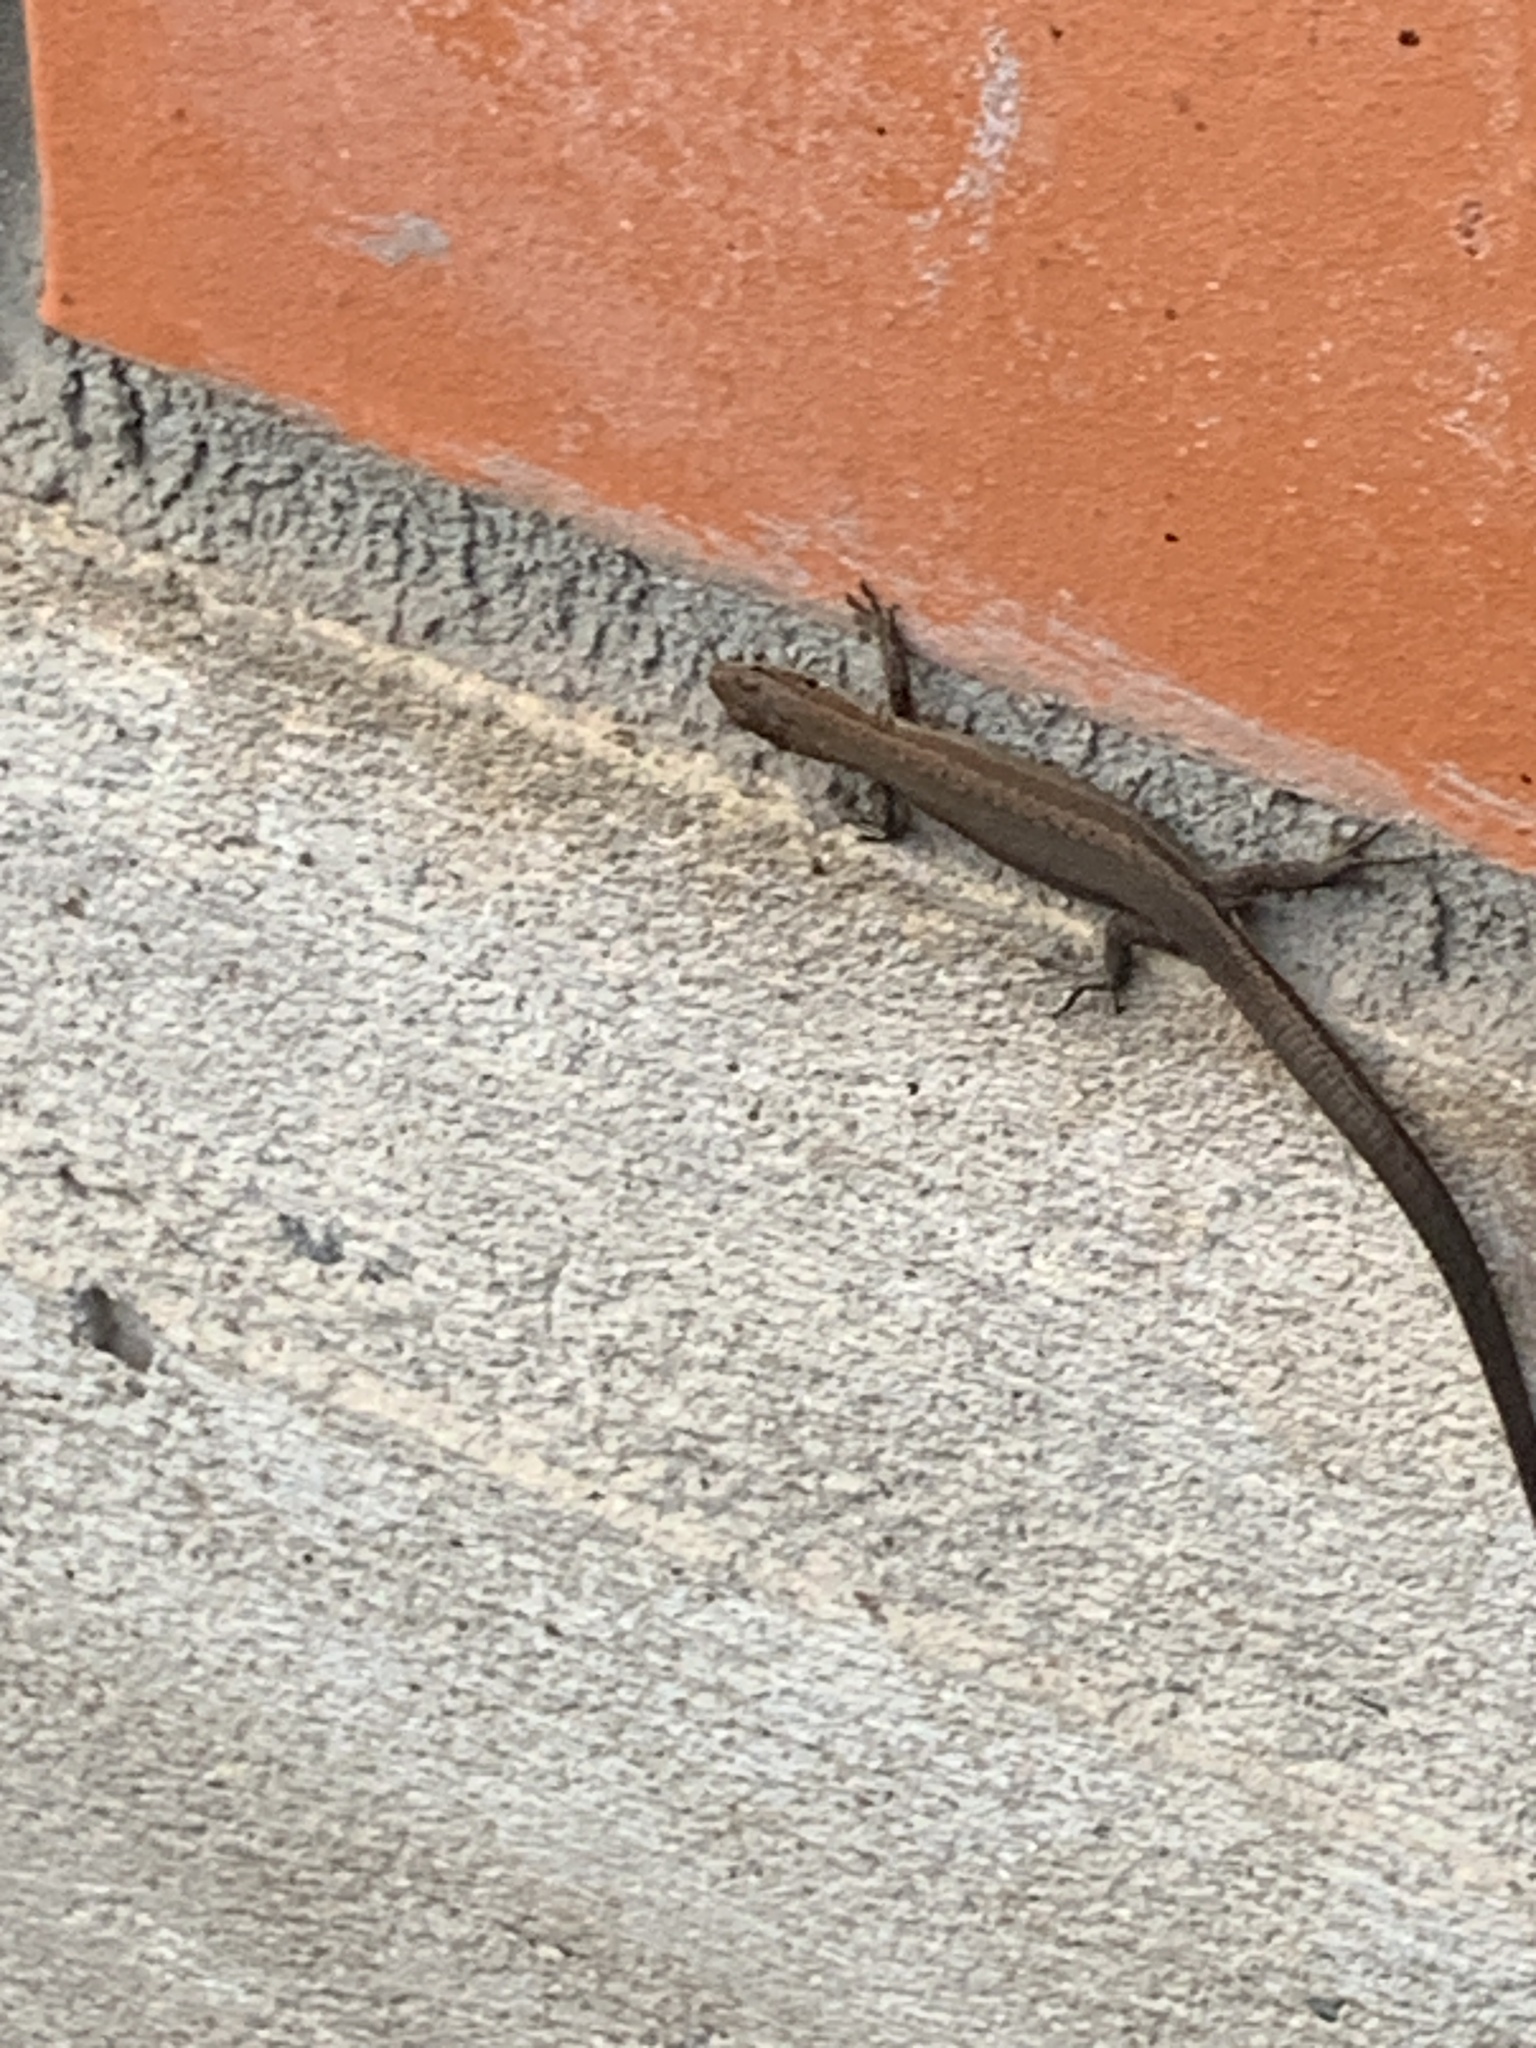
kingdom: Animalia
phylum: Chordata
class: Squamata
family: Lacertidae
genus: Darevskia
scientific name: Darevskia praticola
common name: Meadow lizard
